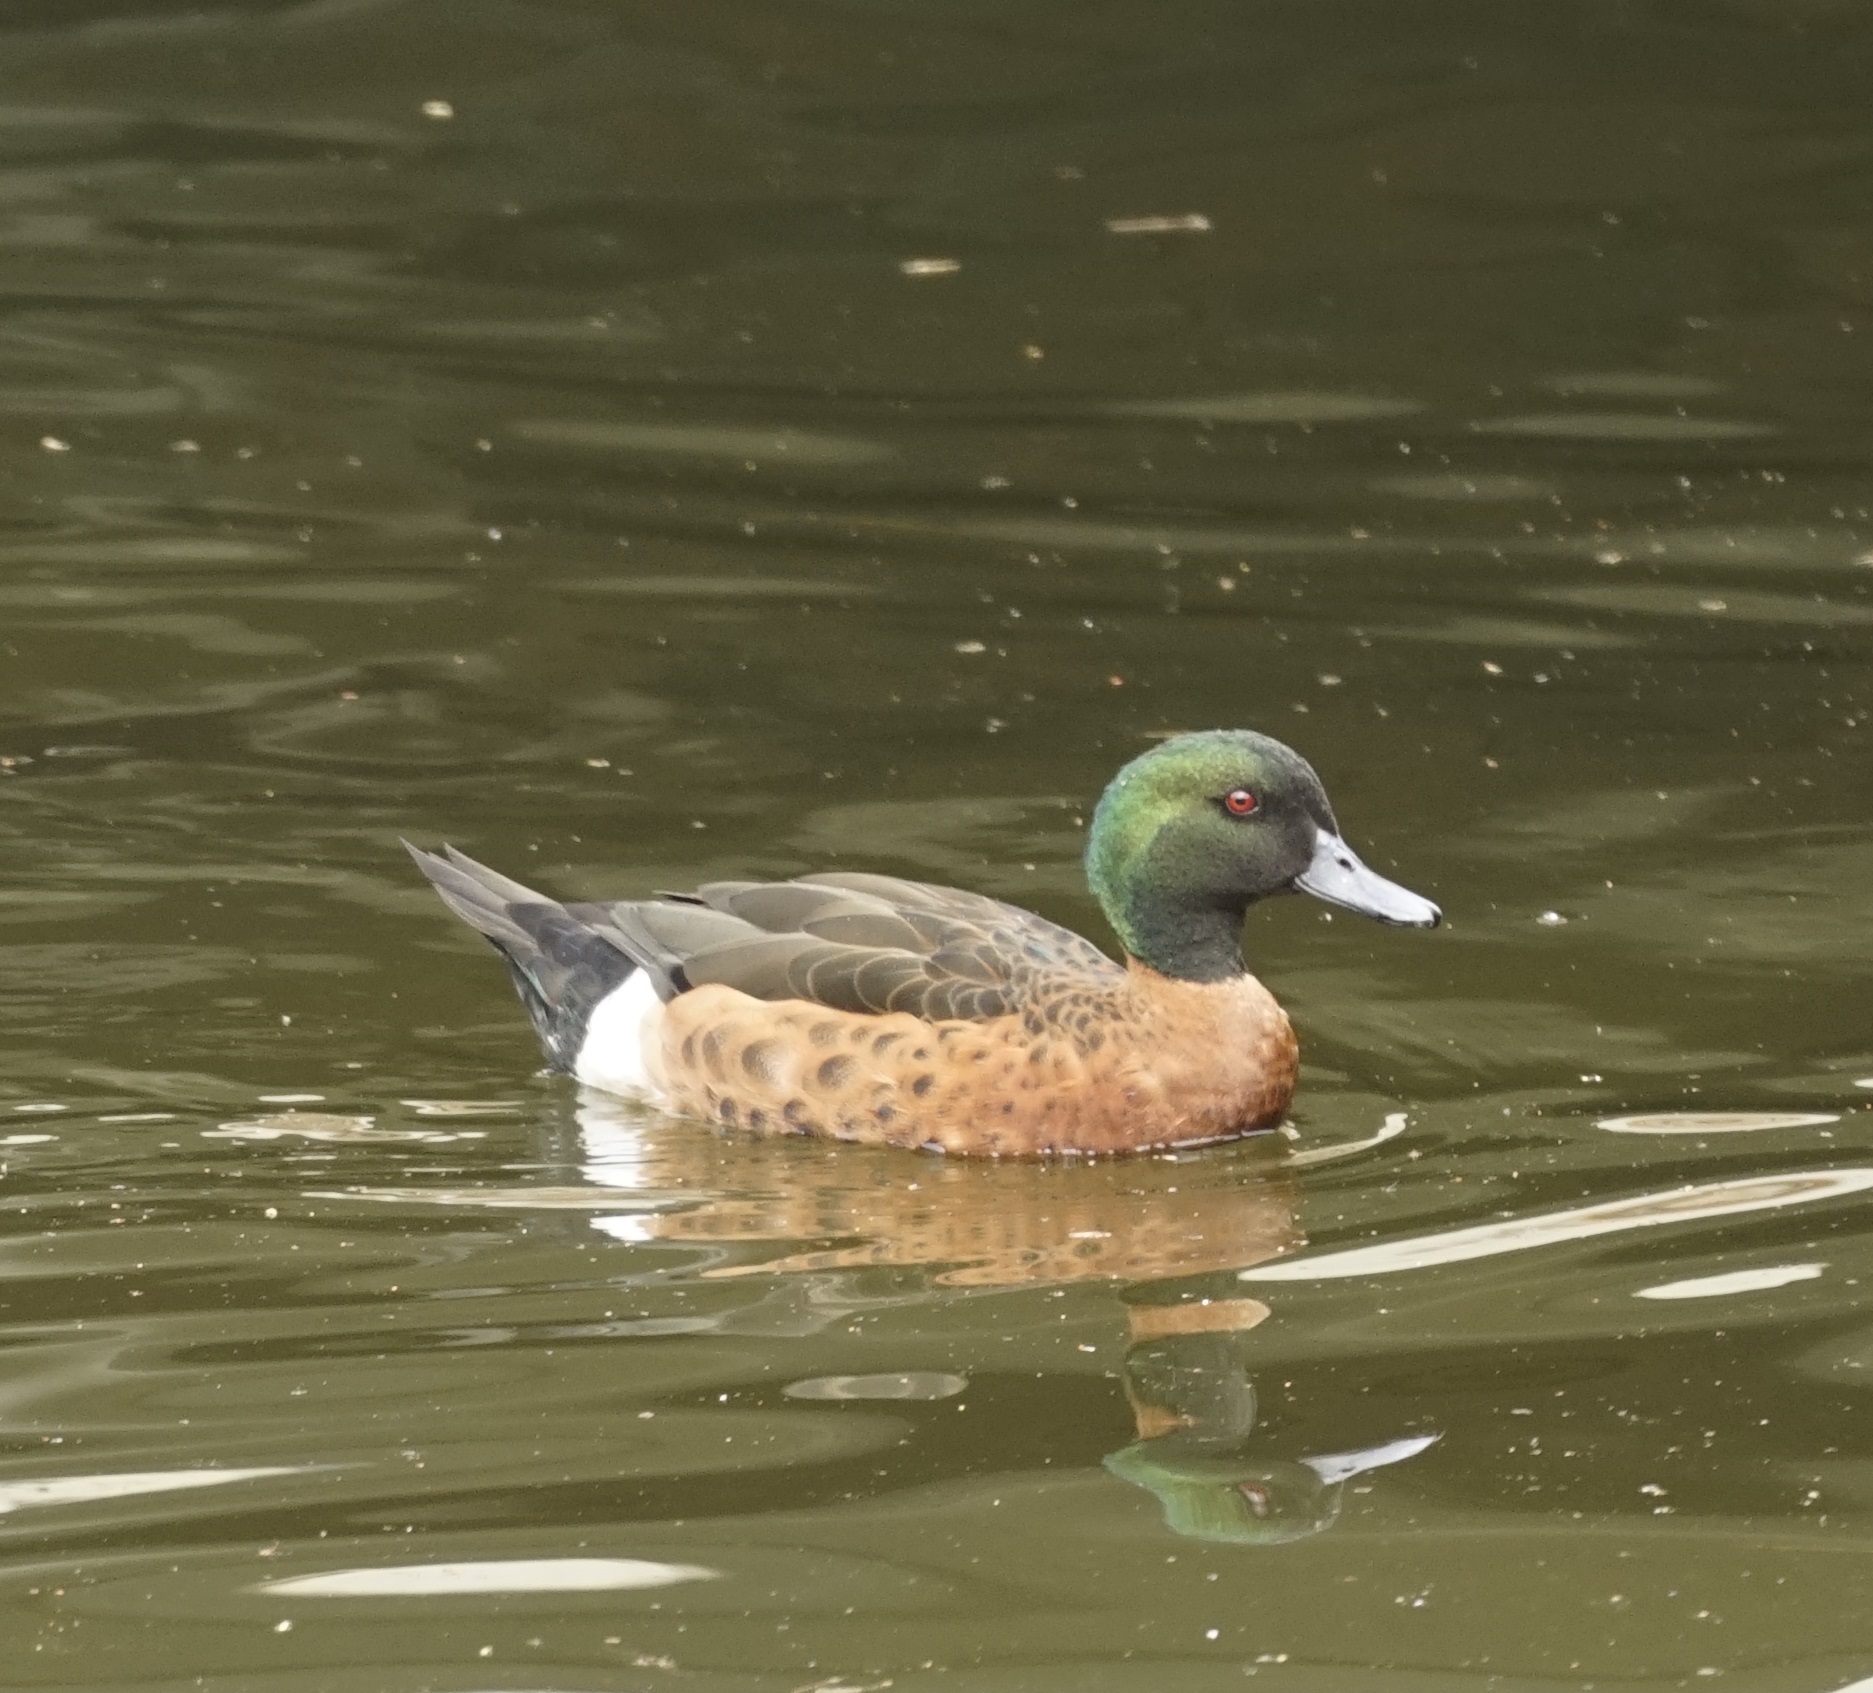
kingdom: Animalia
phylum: Chordata
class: Aves
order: Anseriformes
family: Anatidae
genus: Anas
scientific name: Anas castanea
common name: Chestnut teal
